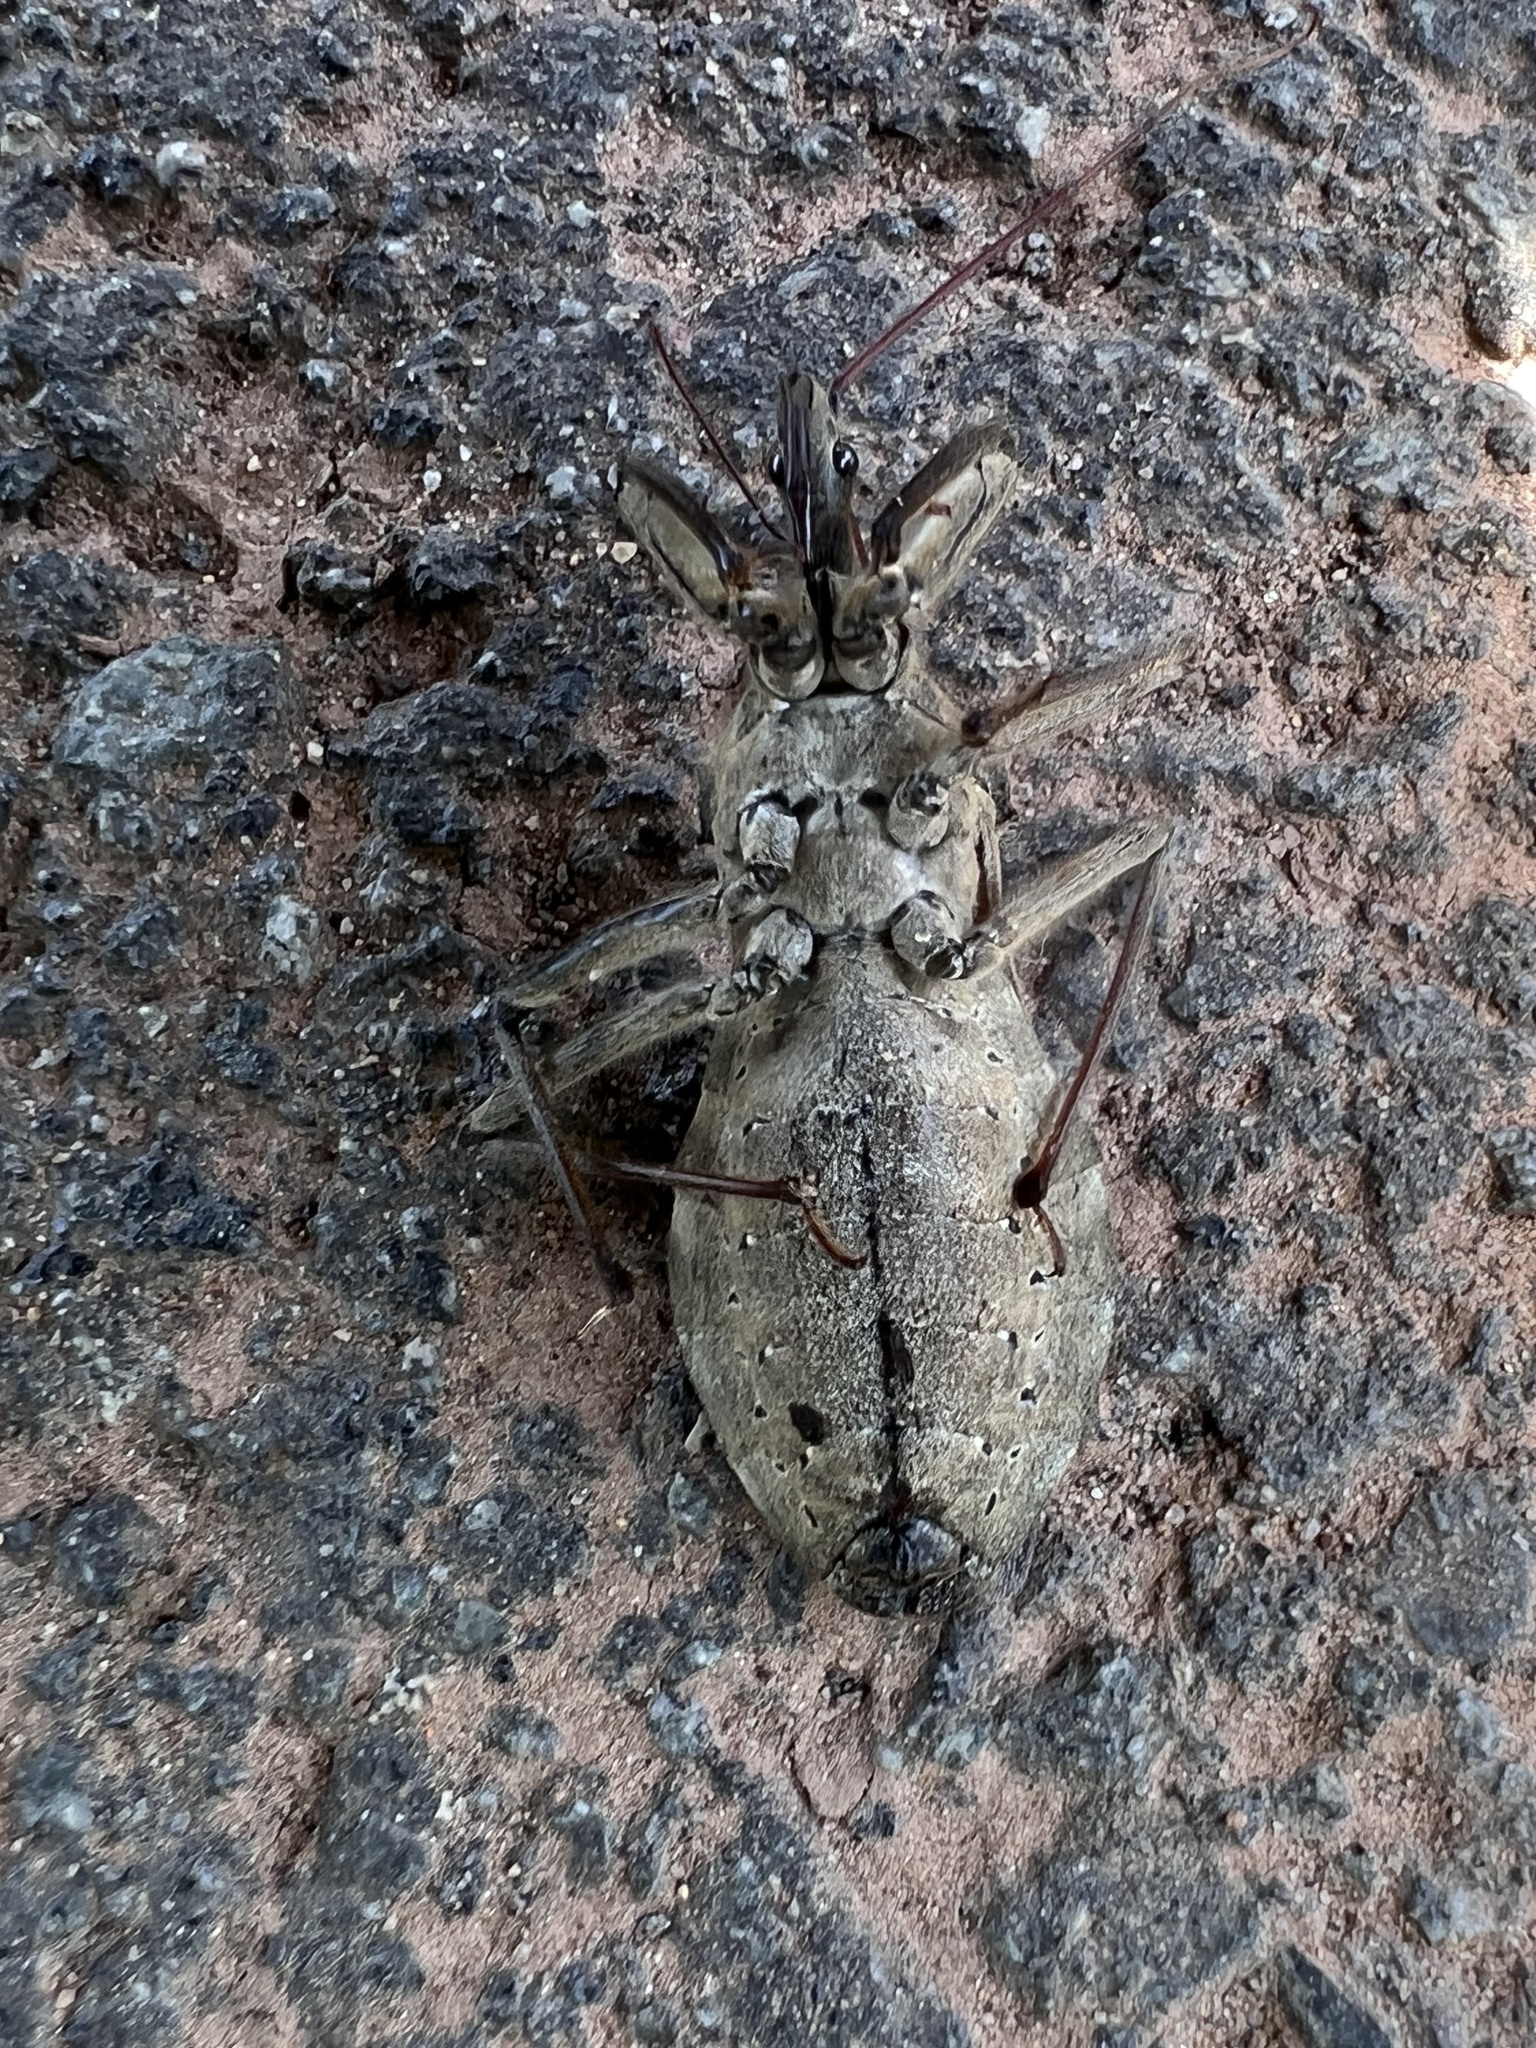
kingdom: Animalia
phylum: Arthropoda
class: Insecta
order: Hemiptera
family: Reduviidae
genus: Arilus
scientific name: Arilus cristatus
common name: North american wheel bug
